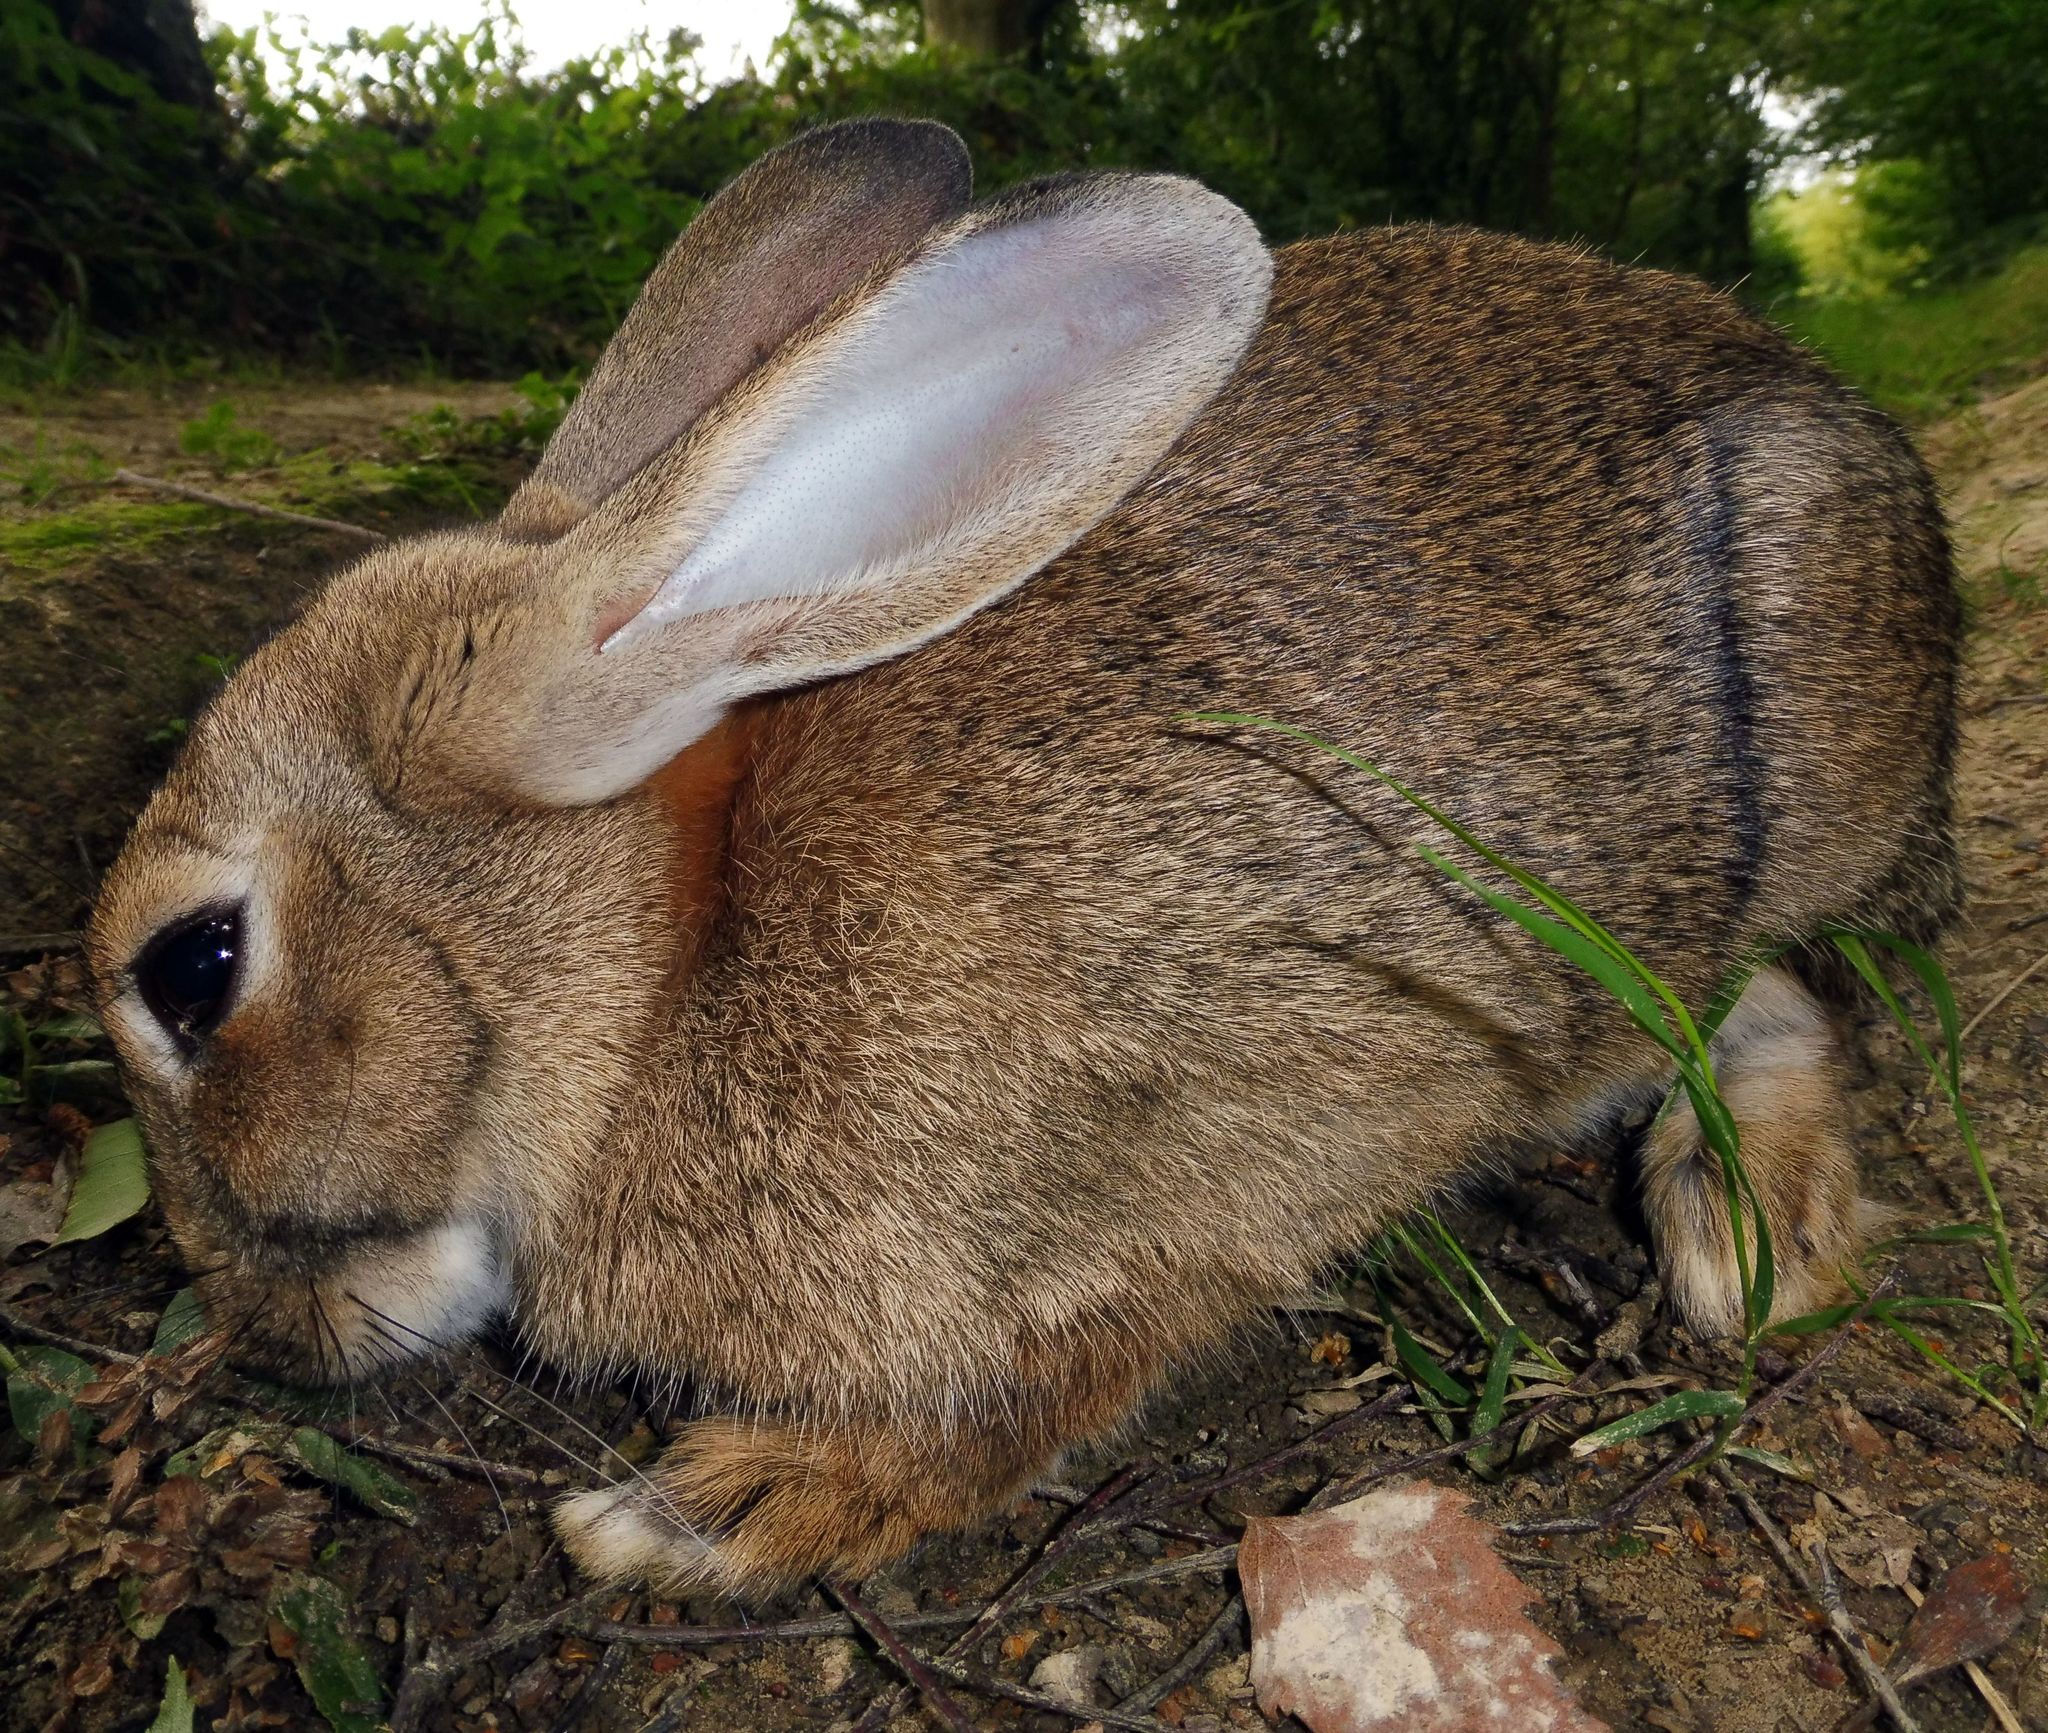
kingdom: Animalia
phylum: Chordata
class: Mammalia
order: Lagomorpha
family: Leporidae
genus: Oryctolagus
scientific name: Oryctolagus cuniculus
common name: European rabbit
